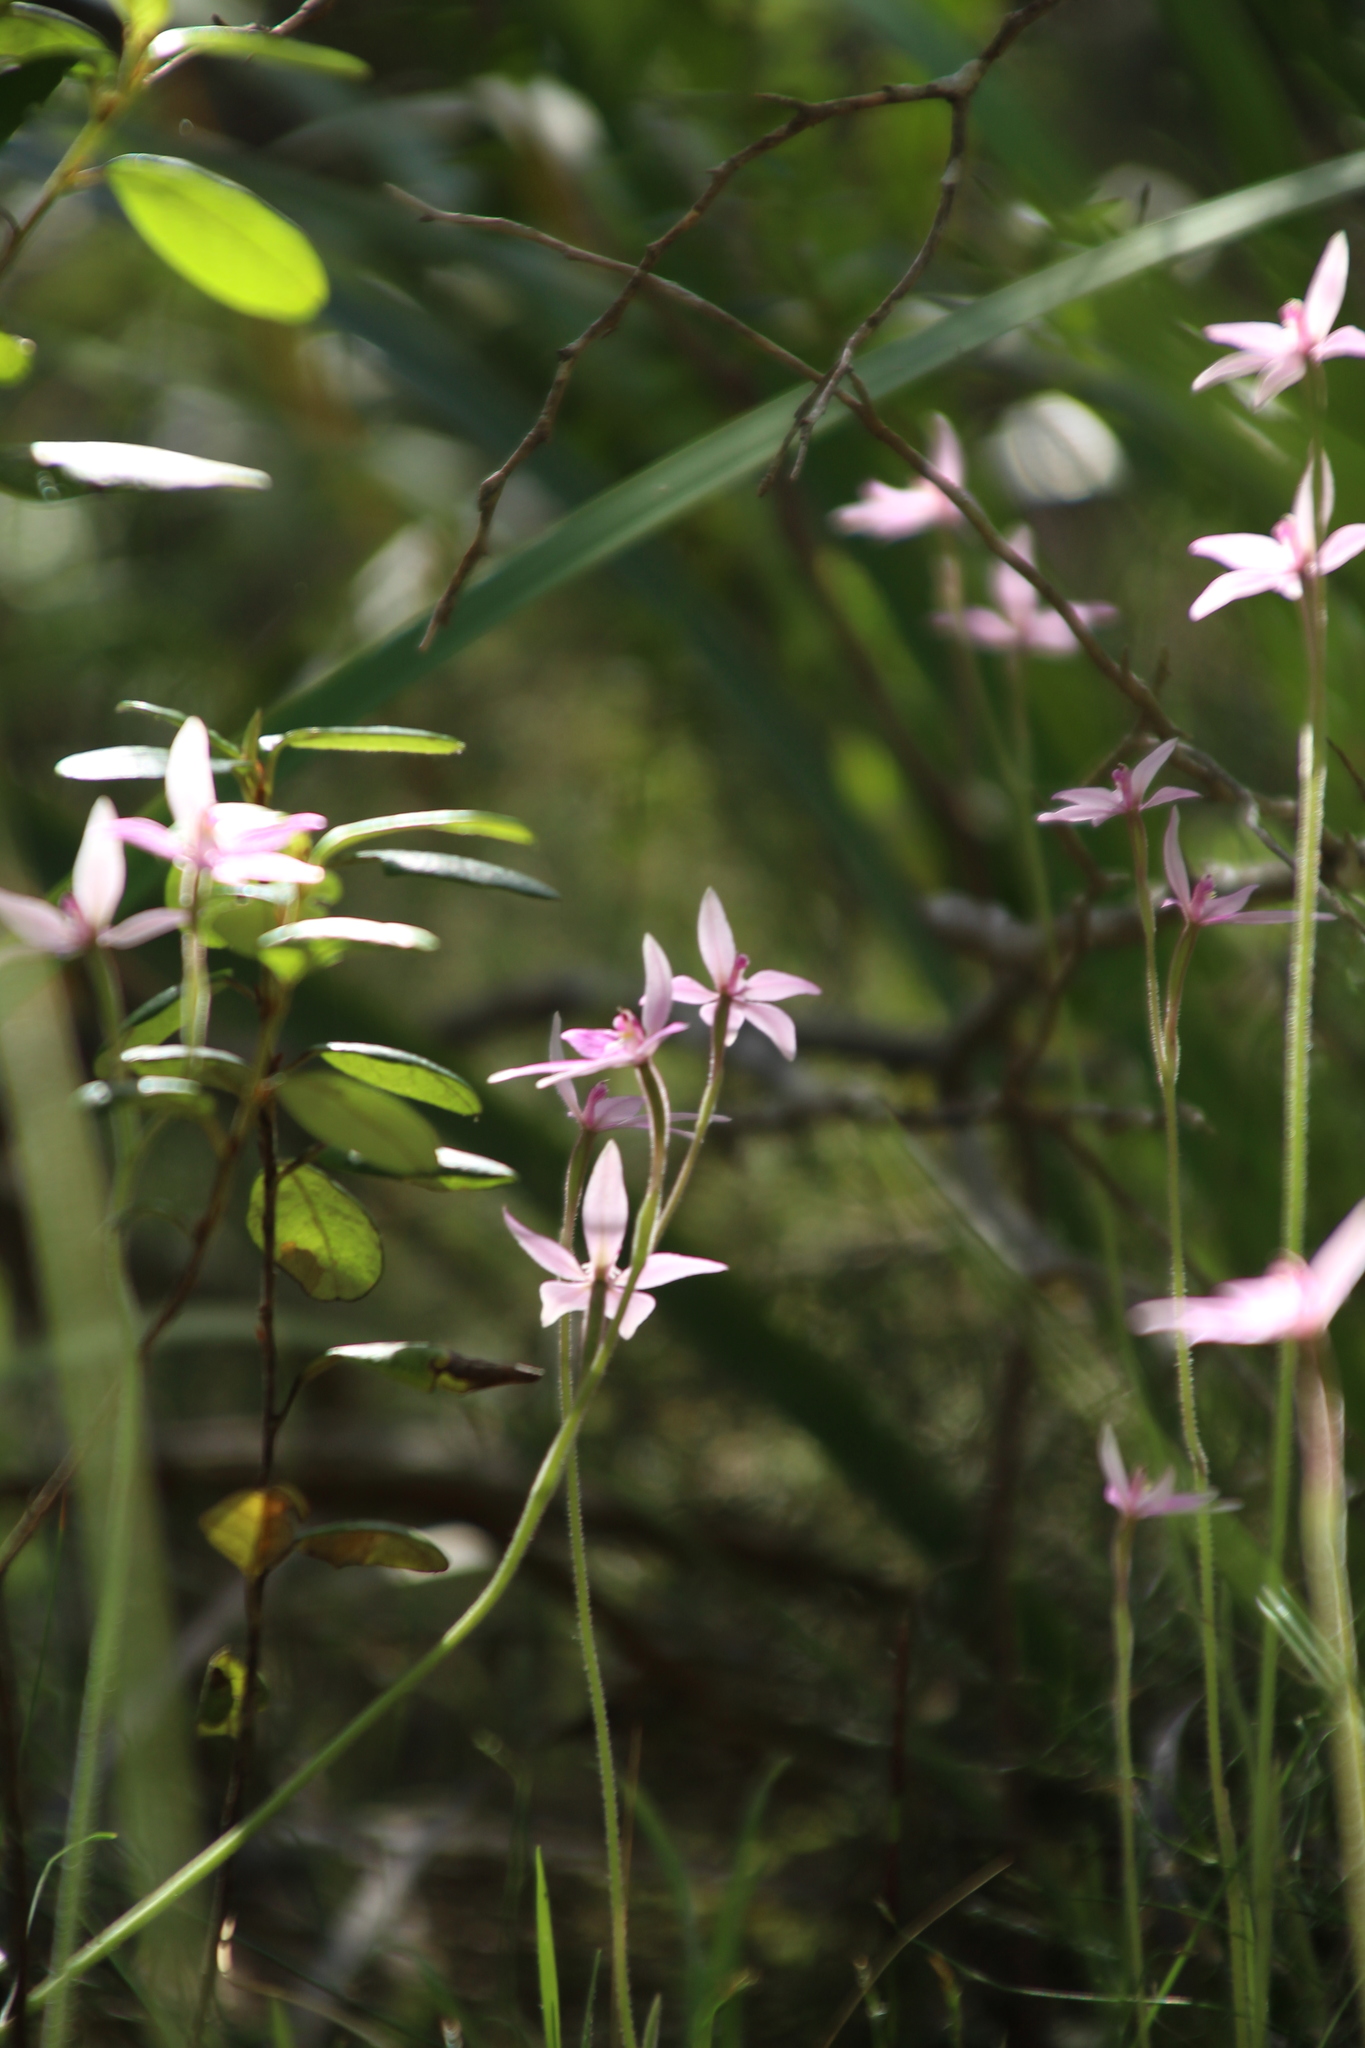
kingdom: Plantae
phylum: Tracheophyta
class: Liliopsida
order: Asparagales
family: Orchidaceae
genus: Caladenia
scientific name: Caladenia latifolia
